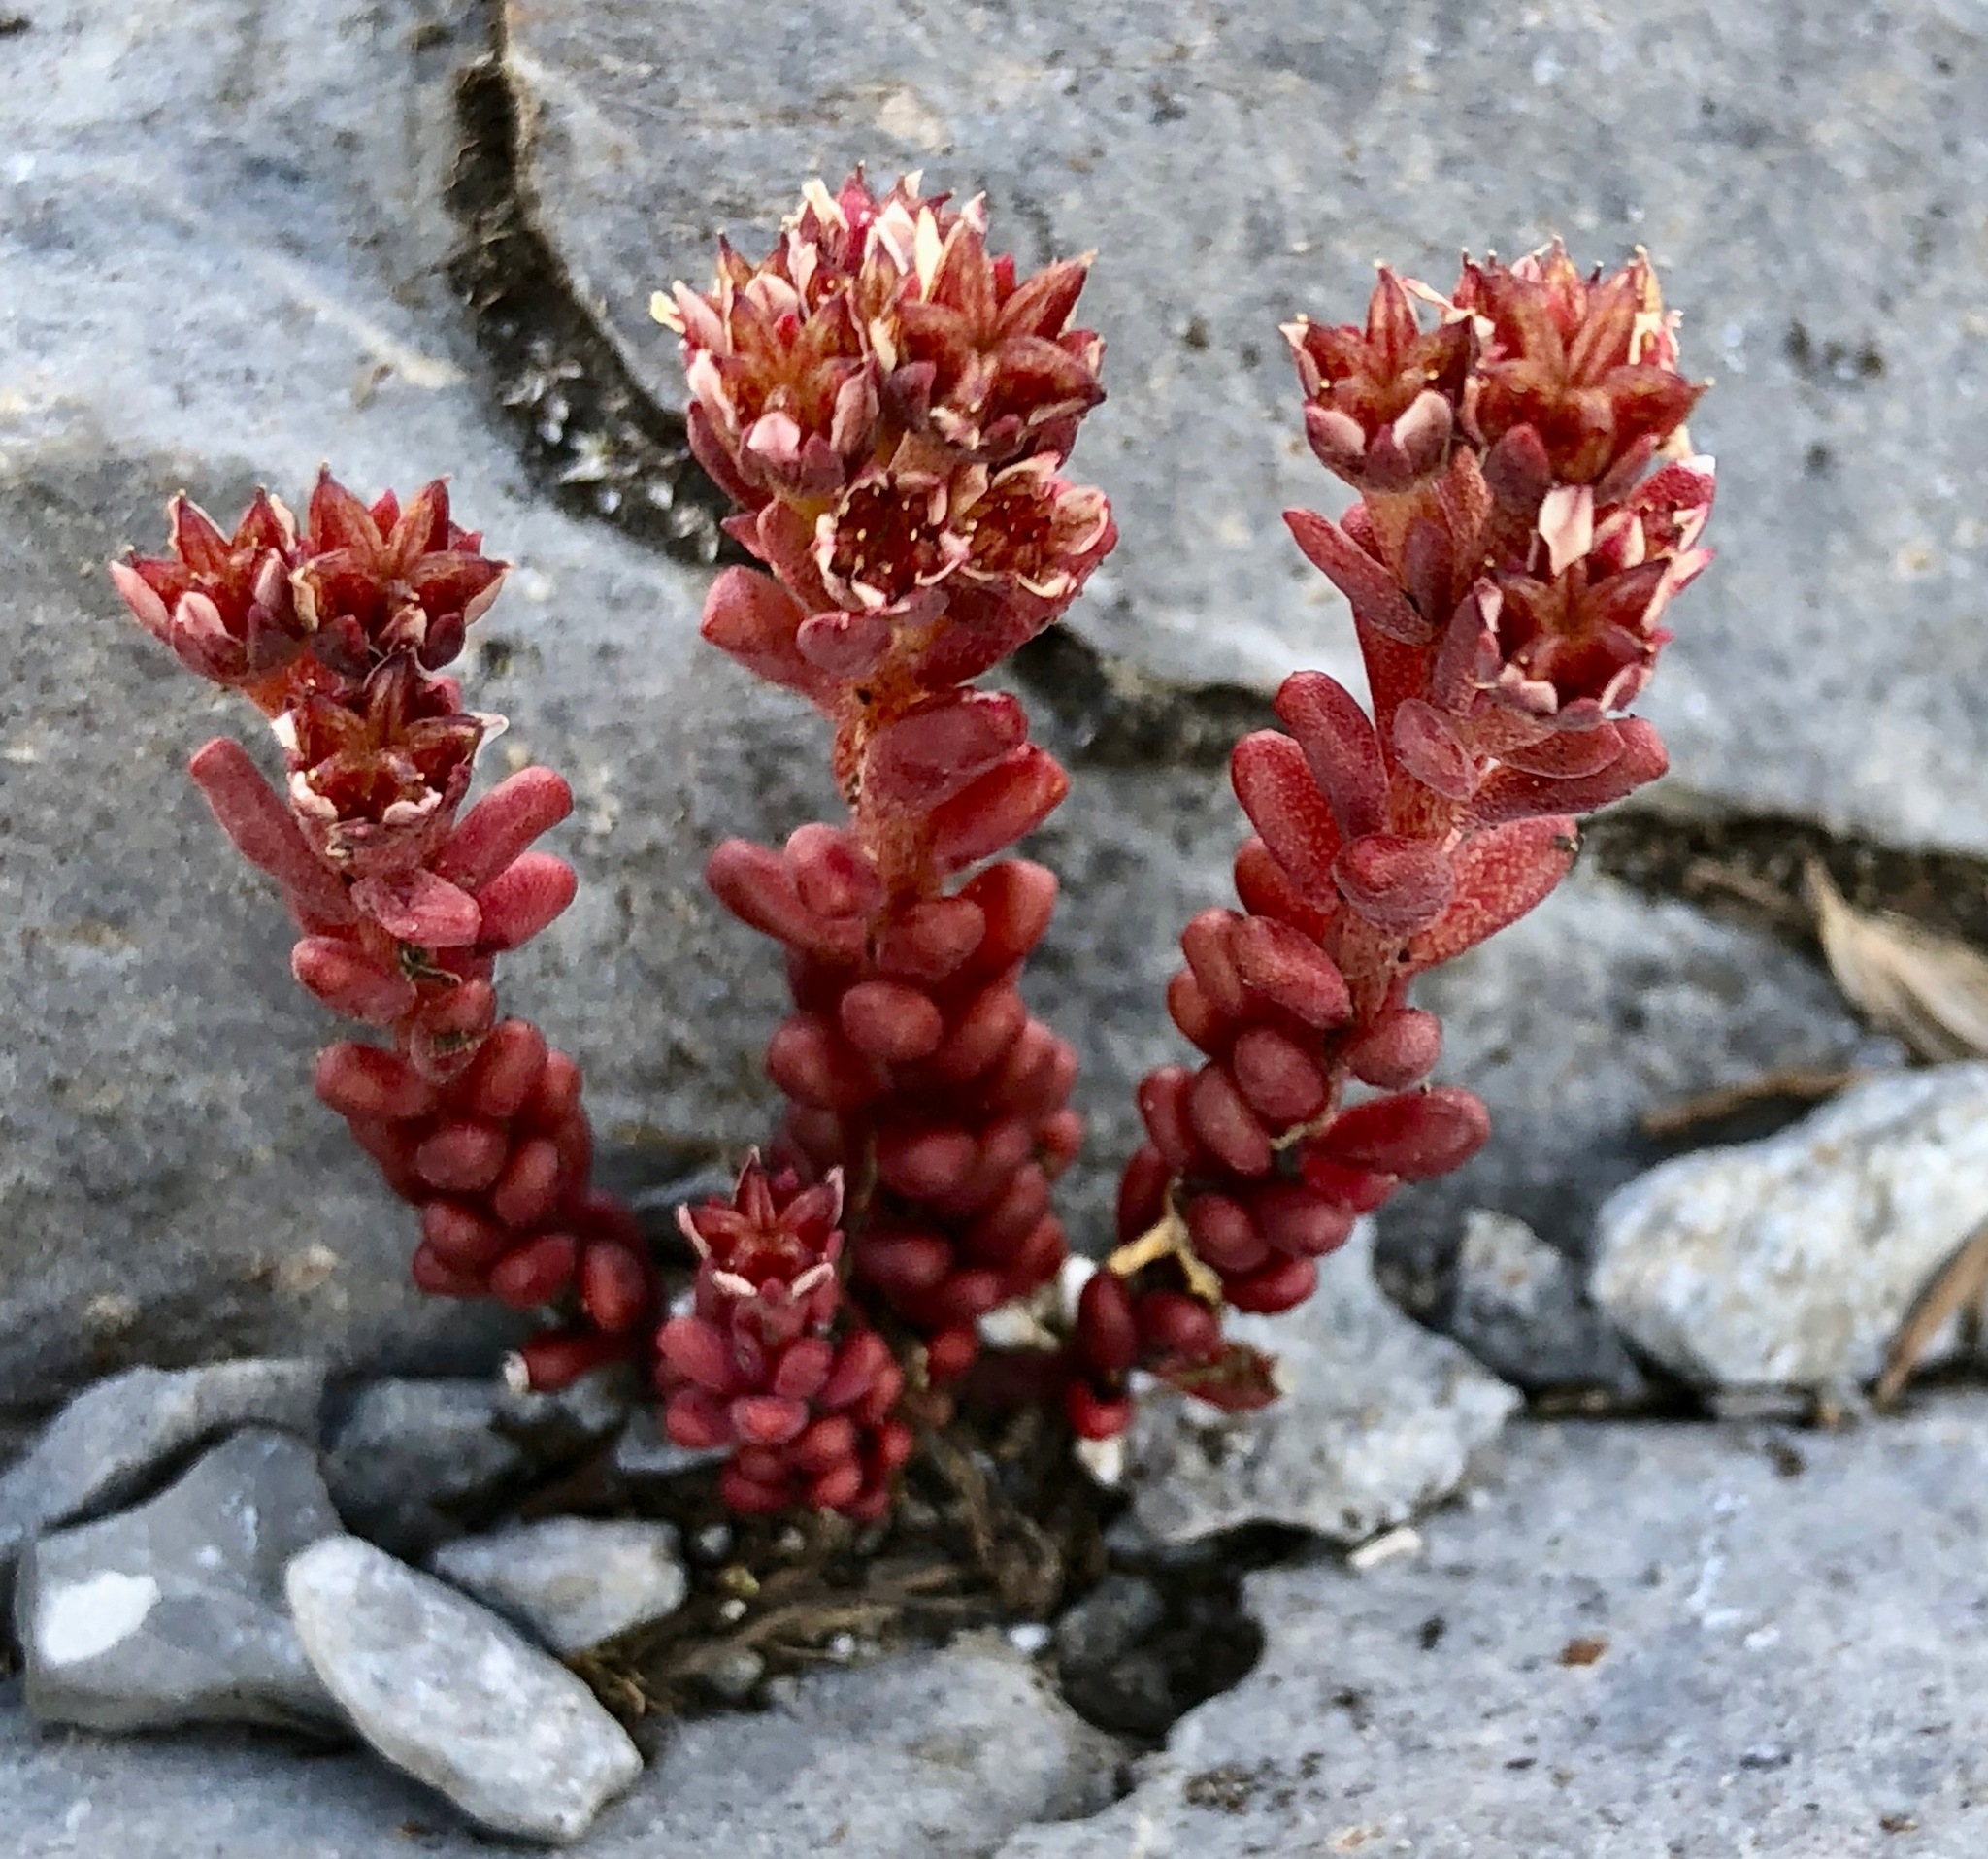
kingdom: Plantae
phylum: Tracheophyta
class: Magnoliopsida
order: Saxifragales
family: Crassulaceae
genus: Sedum
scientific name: Sedum atratum
